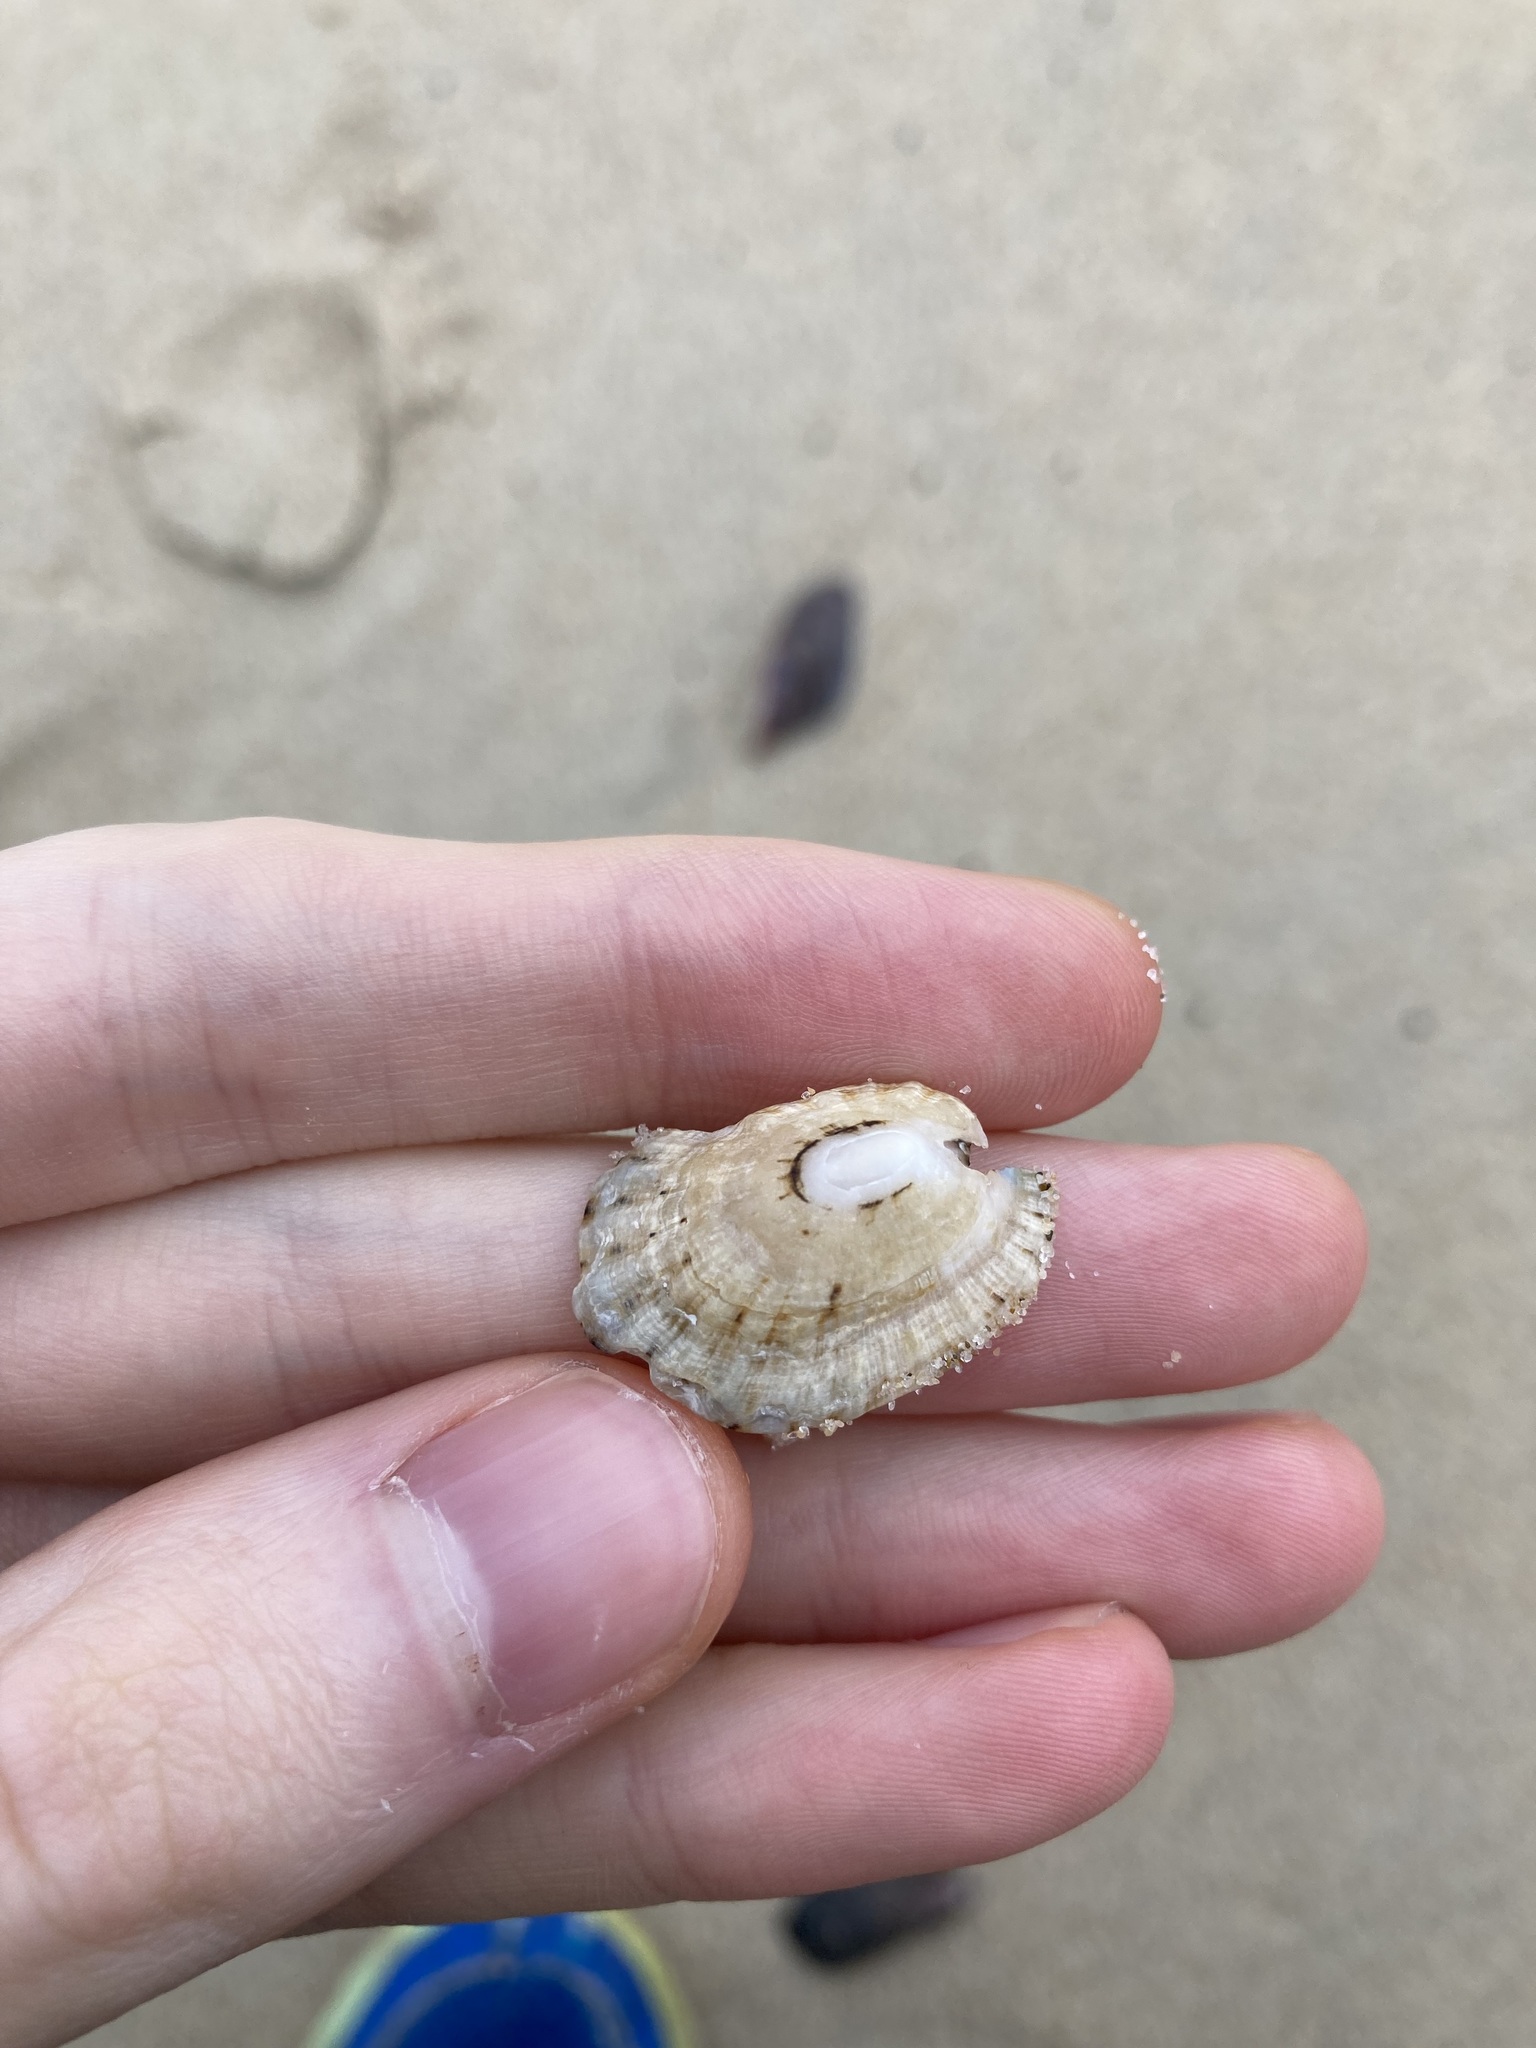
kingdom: Animalia
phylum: Mollusca
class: Gastropoda
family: Patellidae
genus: Scutellastra
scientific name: Scutellastra peronii
